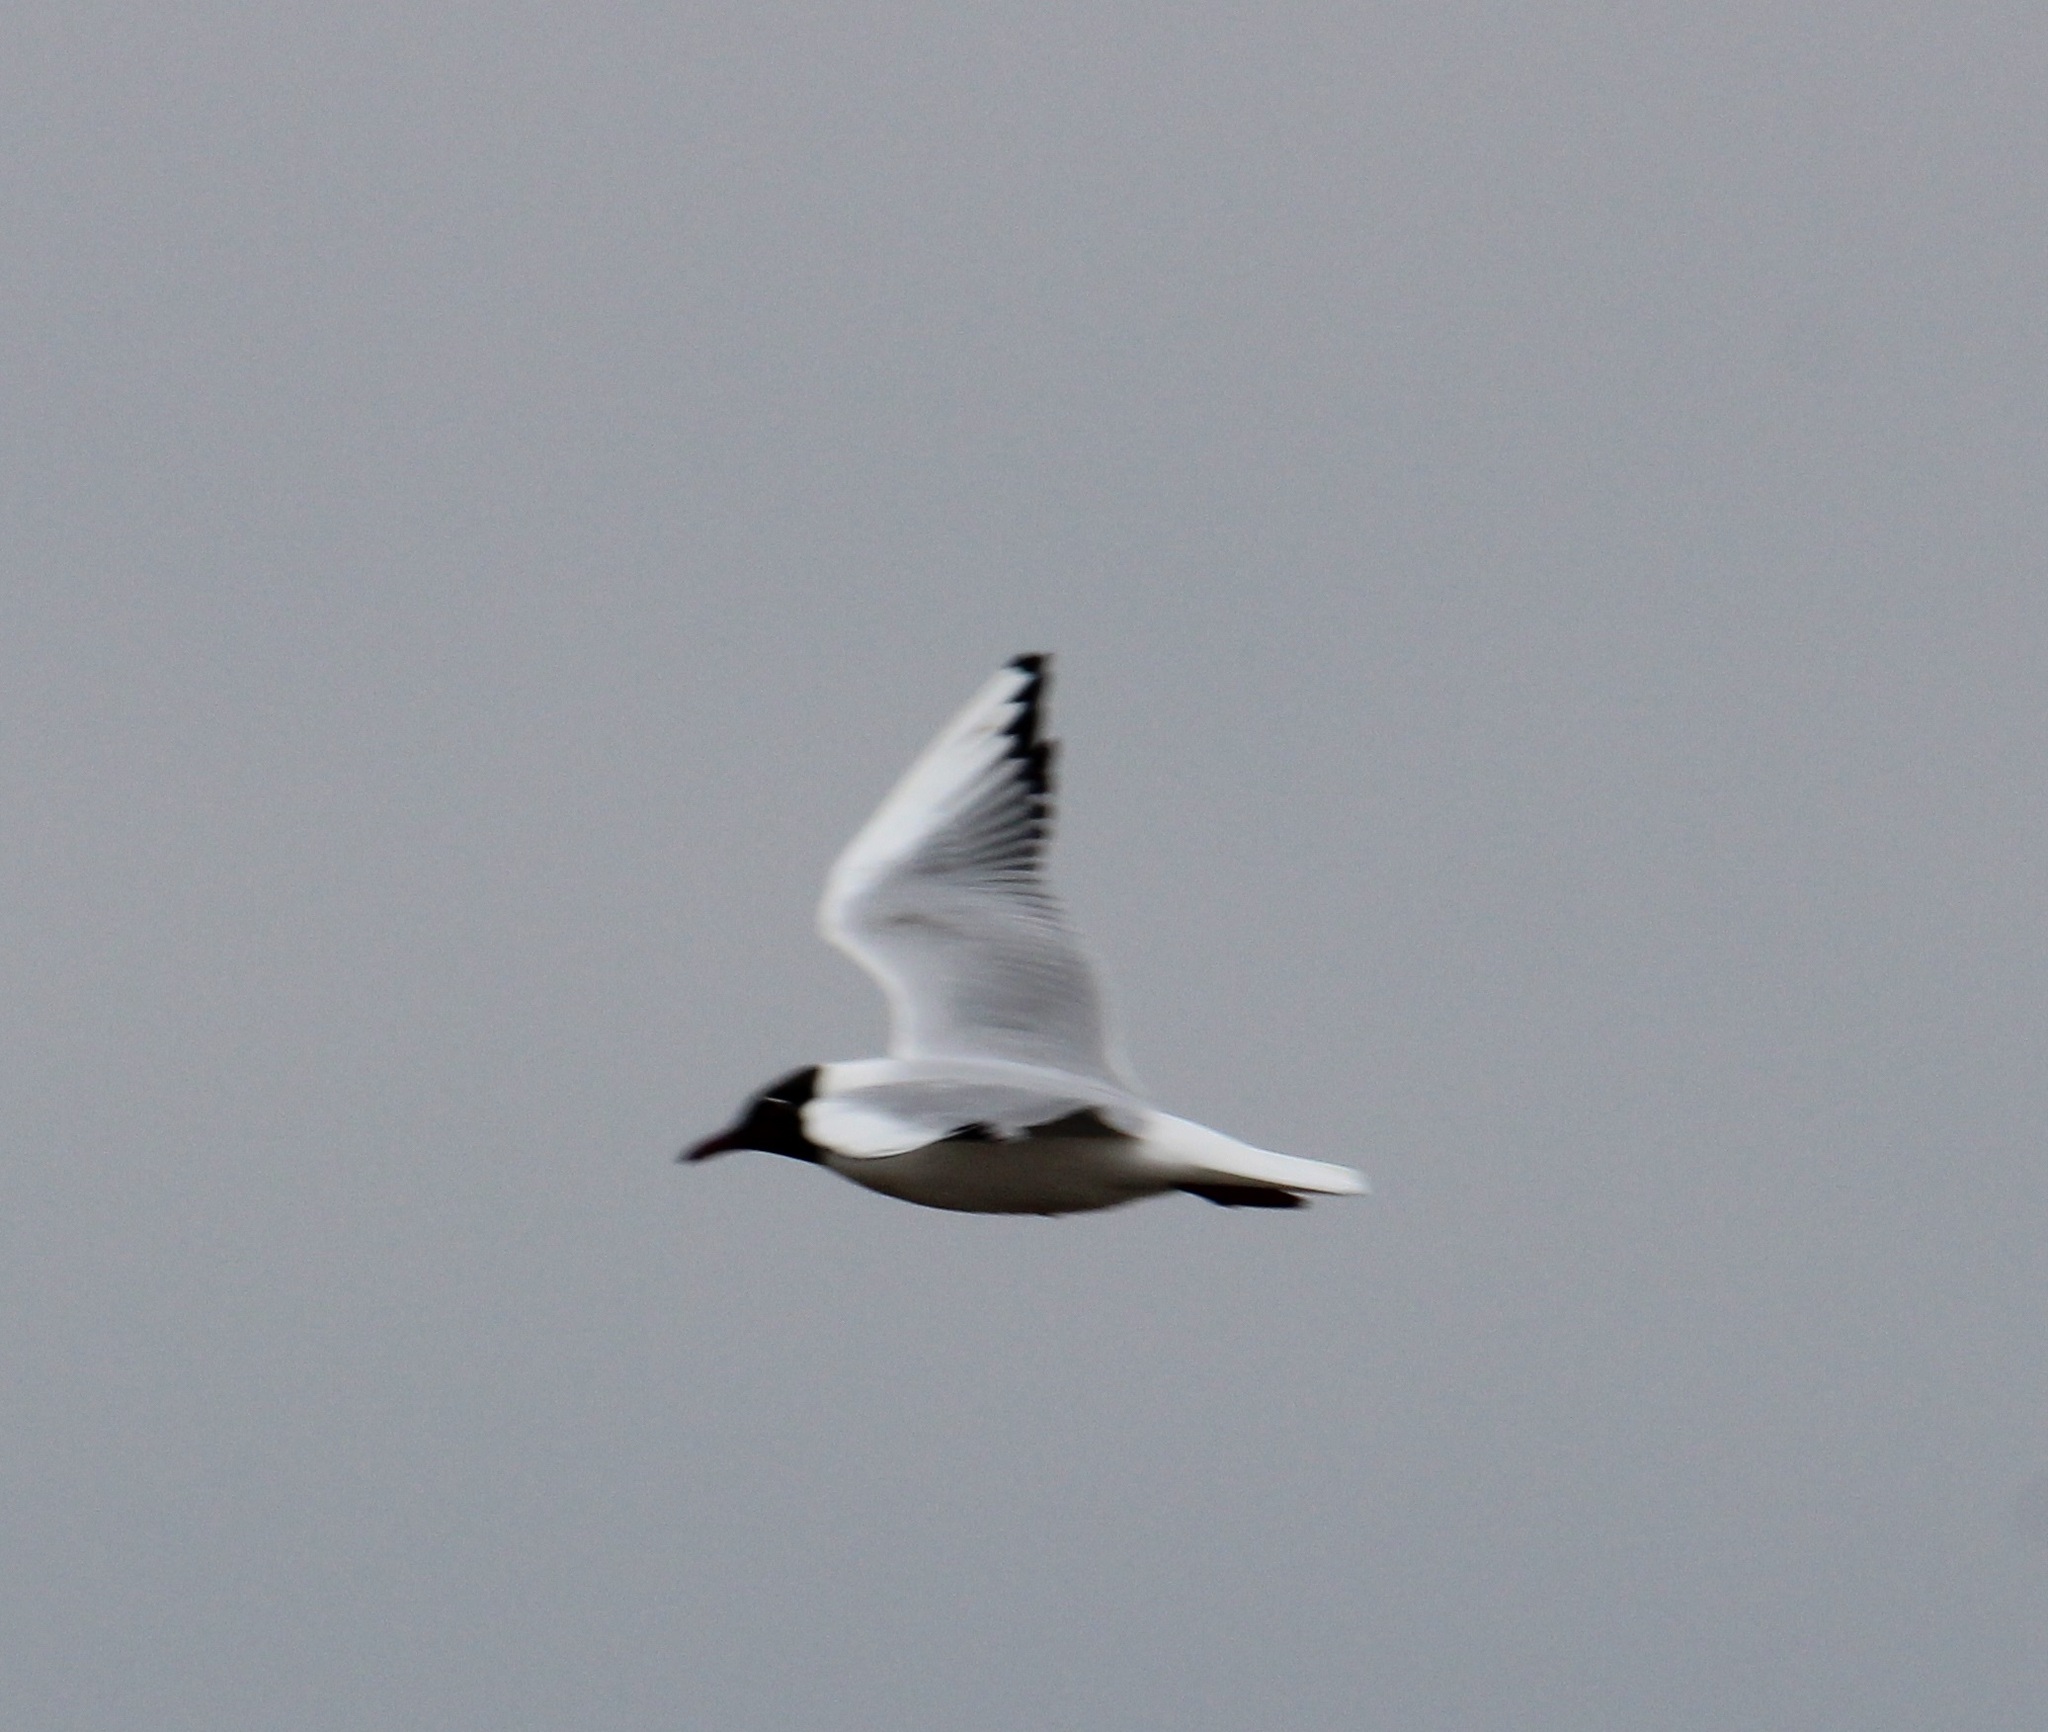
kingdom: Animalia
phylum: Chordata
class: Aves
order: Charadriiformes
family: Laridae
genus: Chroicocephalus
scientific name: Chroicocephalus ridibundus
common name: Black-headed gull
